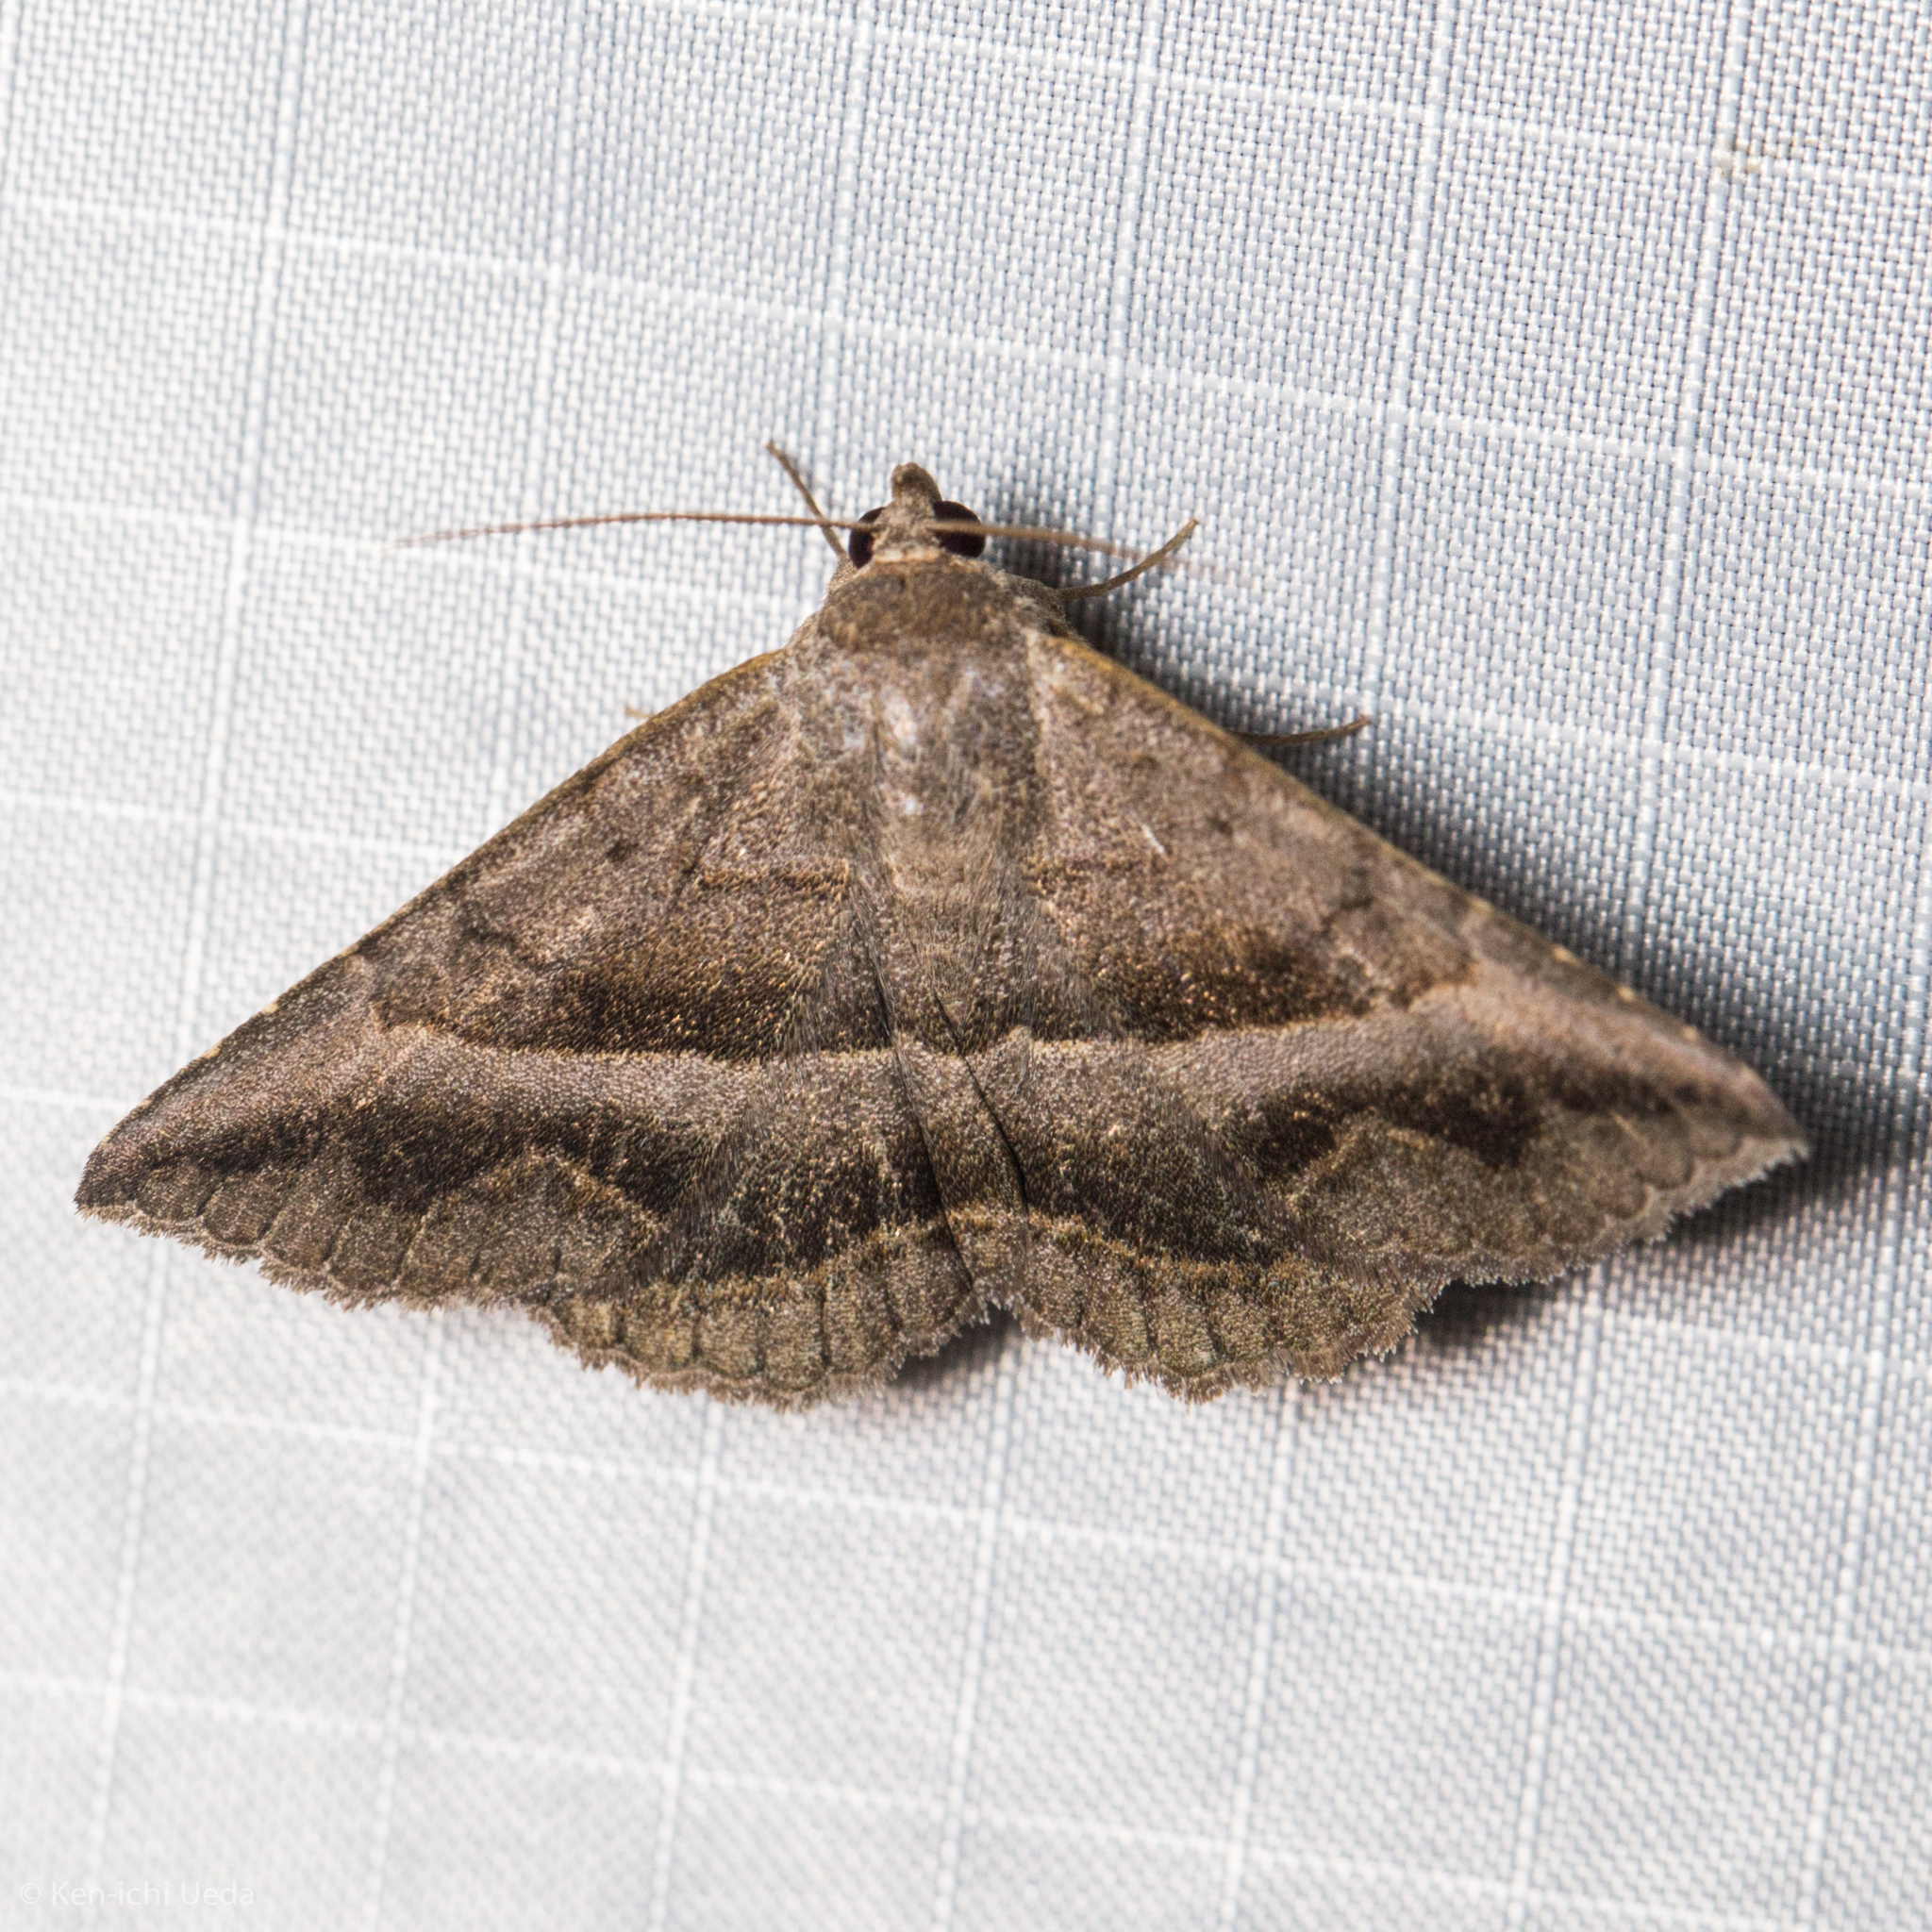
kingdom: Animalia
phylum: Arthropoda
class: Insecta
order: Lepidoptera
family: Erebidae
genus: Lesmone
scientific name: Lesmone griseipennis
